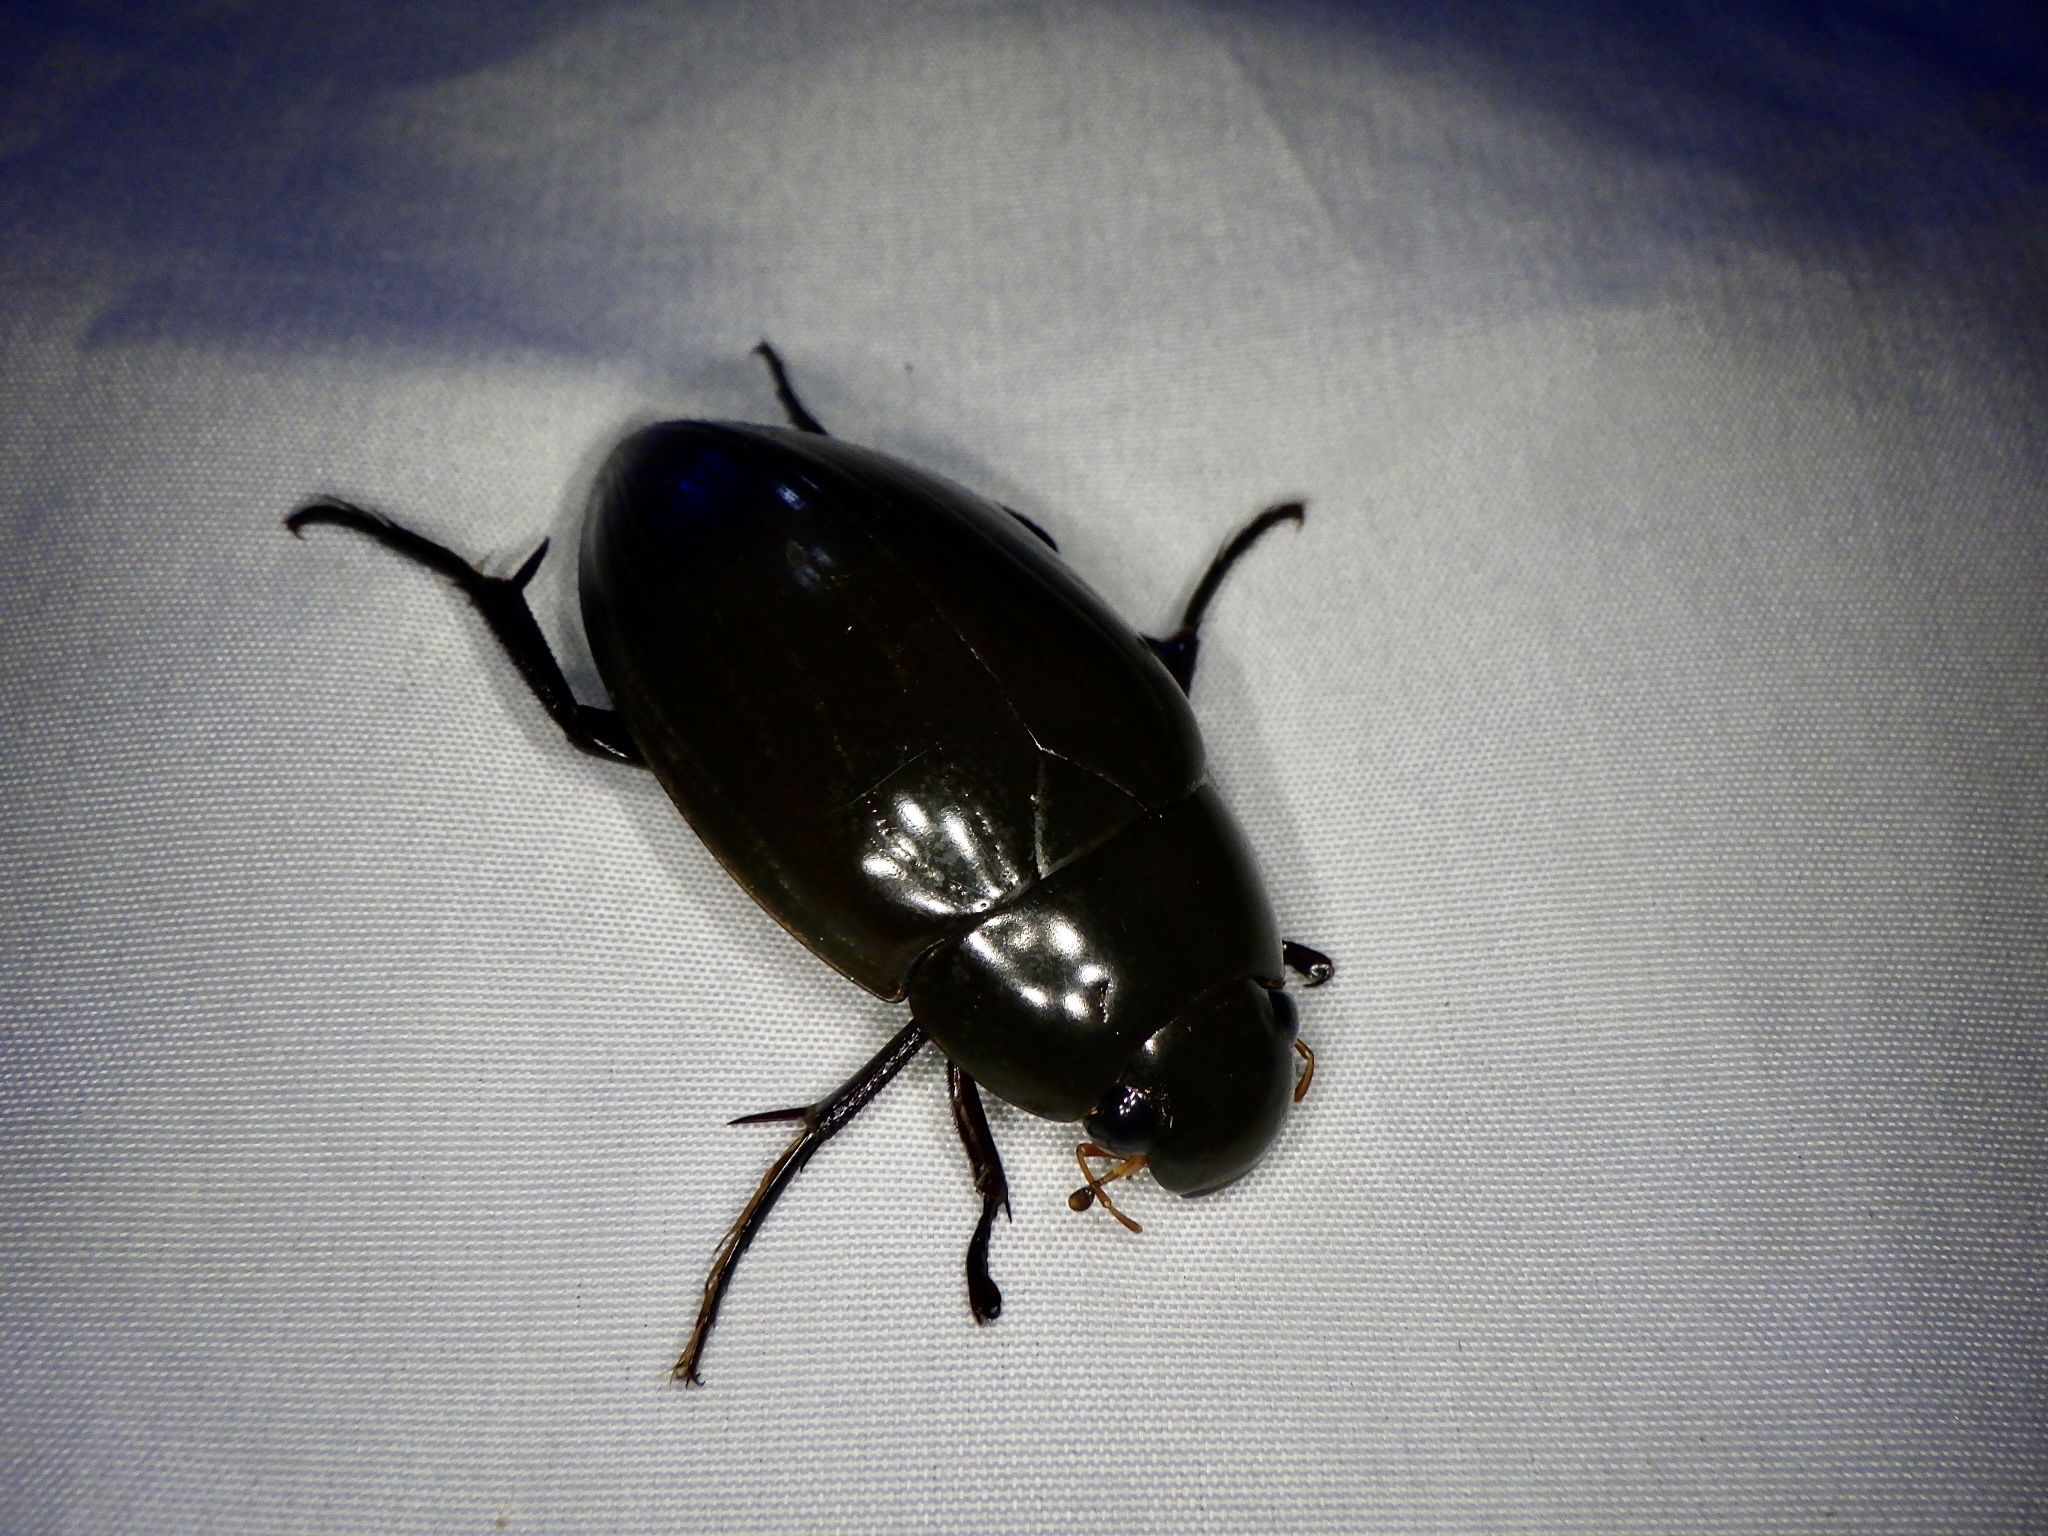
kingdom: Animalia
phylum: Arthropoda
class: Insecta
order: Coleoptera
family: Hydrophilidae
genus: Hydrophilus
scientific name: Hydrophilus acuminatus
